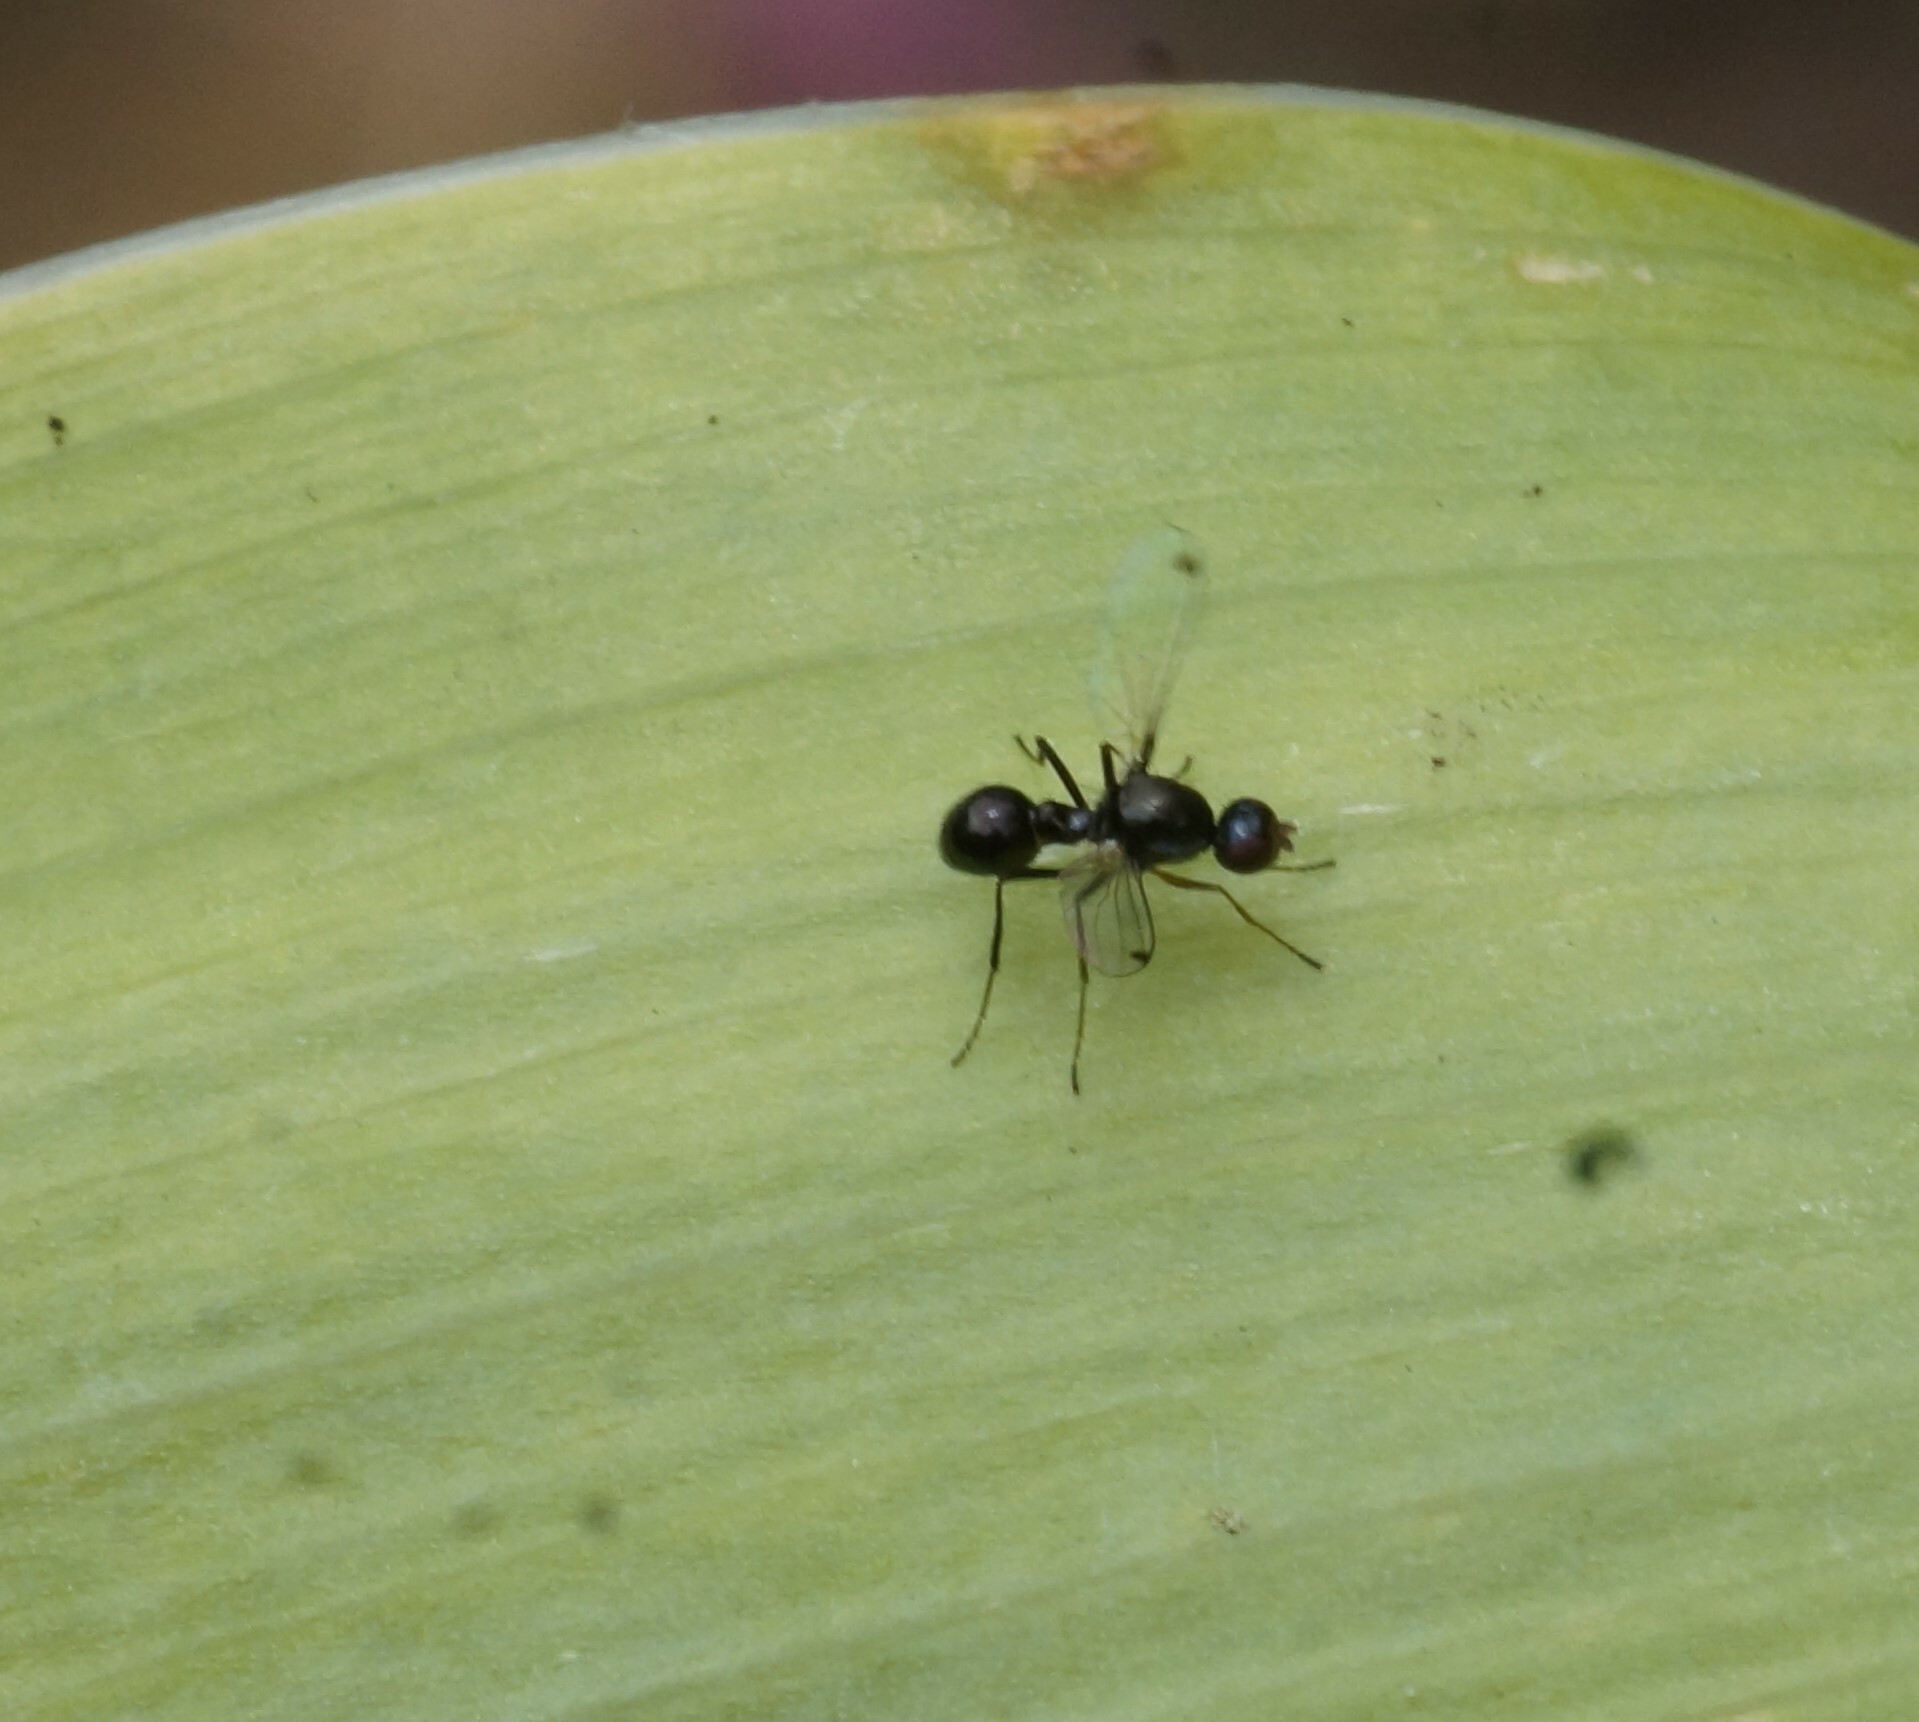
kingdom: Animalia
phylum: Arthropoda
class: Insecta
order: Diptera
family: Sepsidae
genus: Parapalaeosepsis
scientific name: Parapalaeosepsis plebeia
